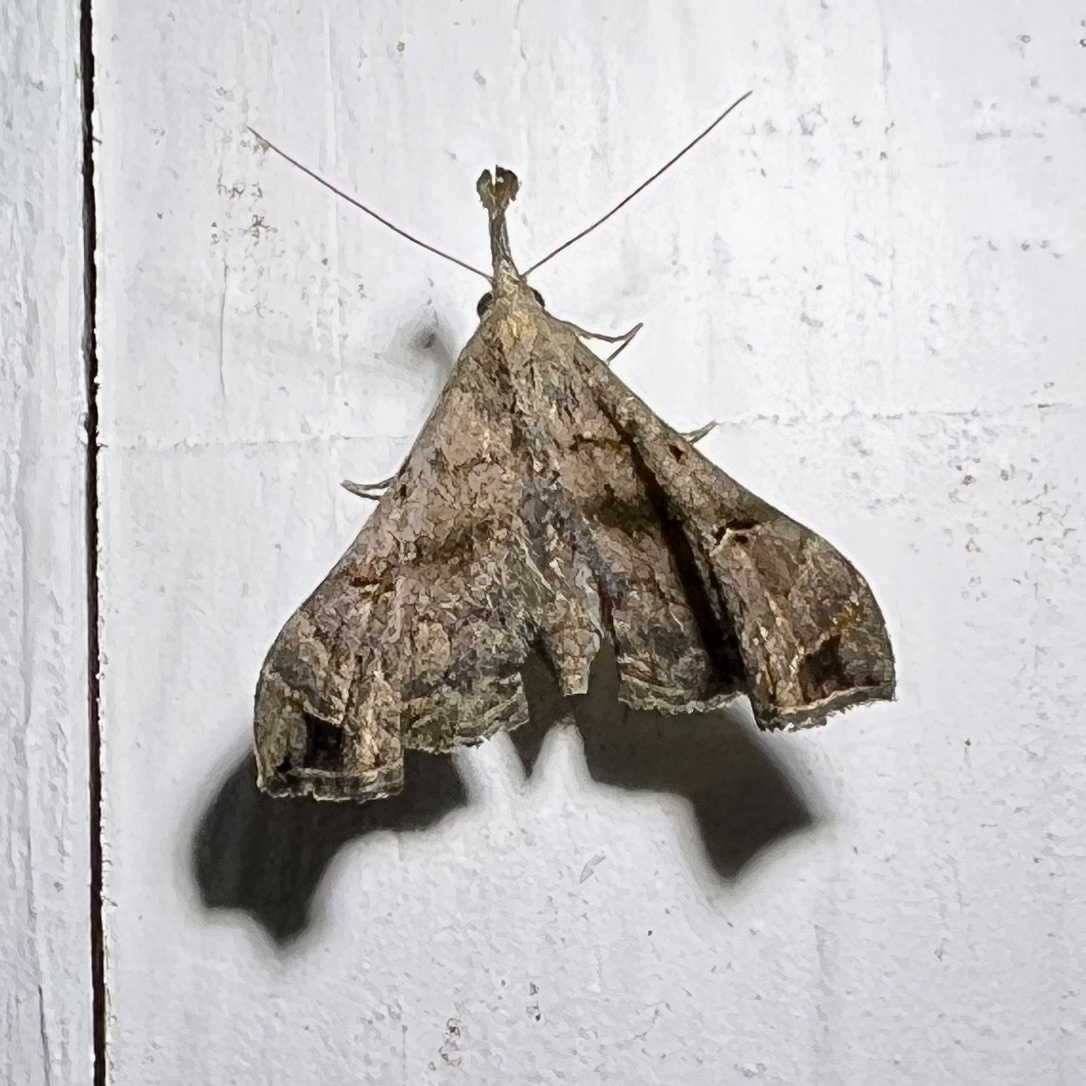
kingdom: Animalia
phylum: Arthropoda
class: Insecta
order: Lepidoptera
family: Erebidae
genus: Palthis
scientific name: Palthis asopialis
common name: Faint-spotted palthis moth
